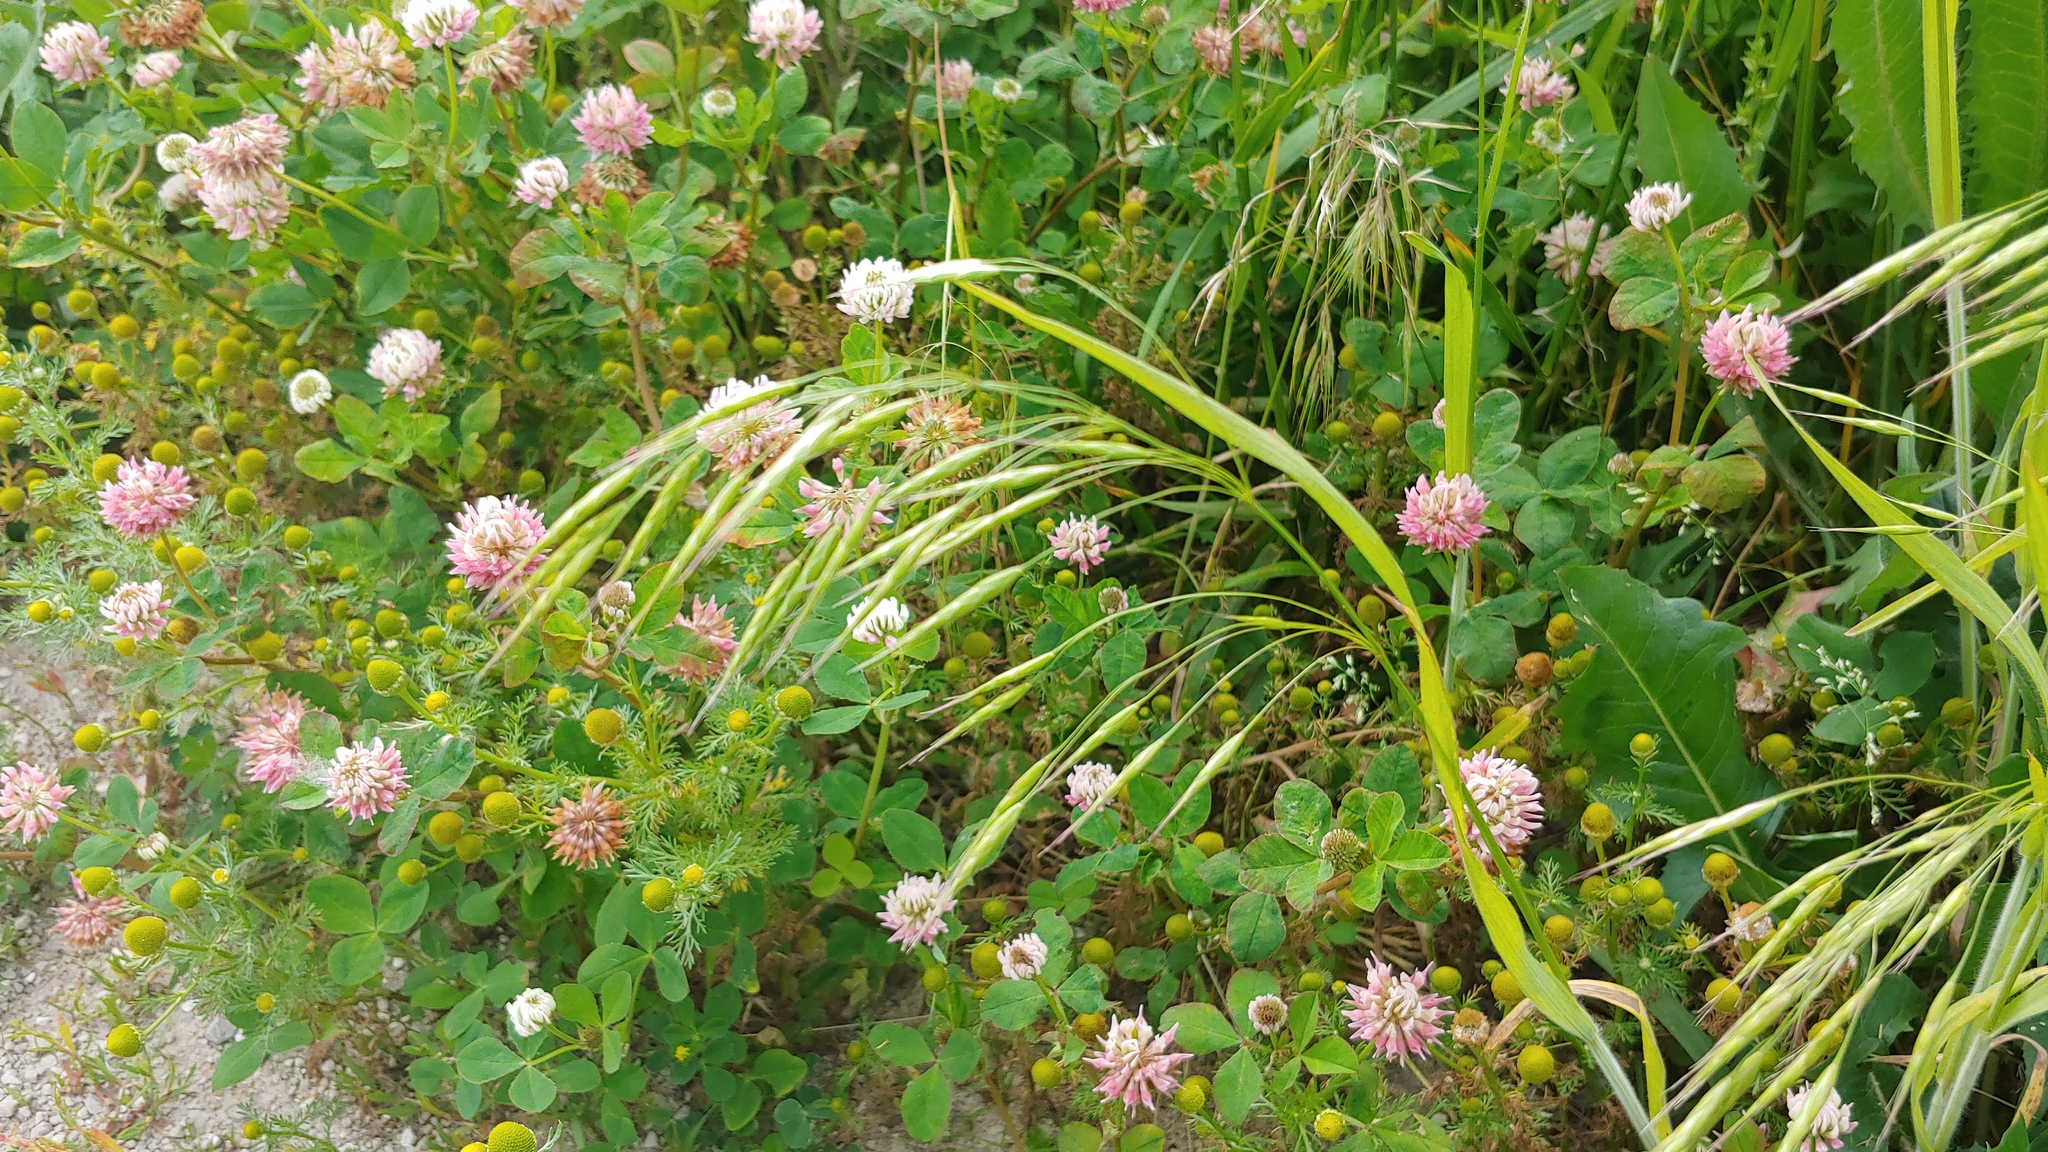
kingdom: Plantae
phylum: Tracheophyta
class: Magnoliopsida
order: Fabales
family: Fabaceae
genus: Trifolium
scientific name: Trifolium hybridum
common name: Alsike clover
